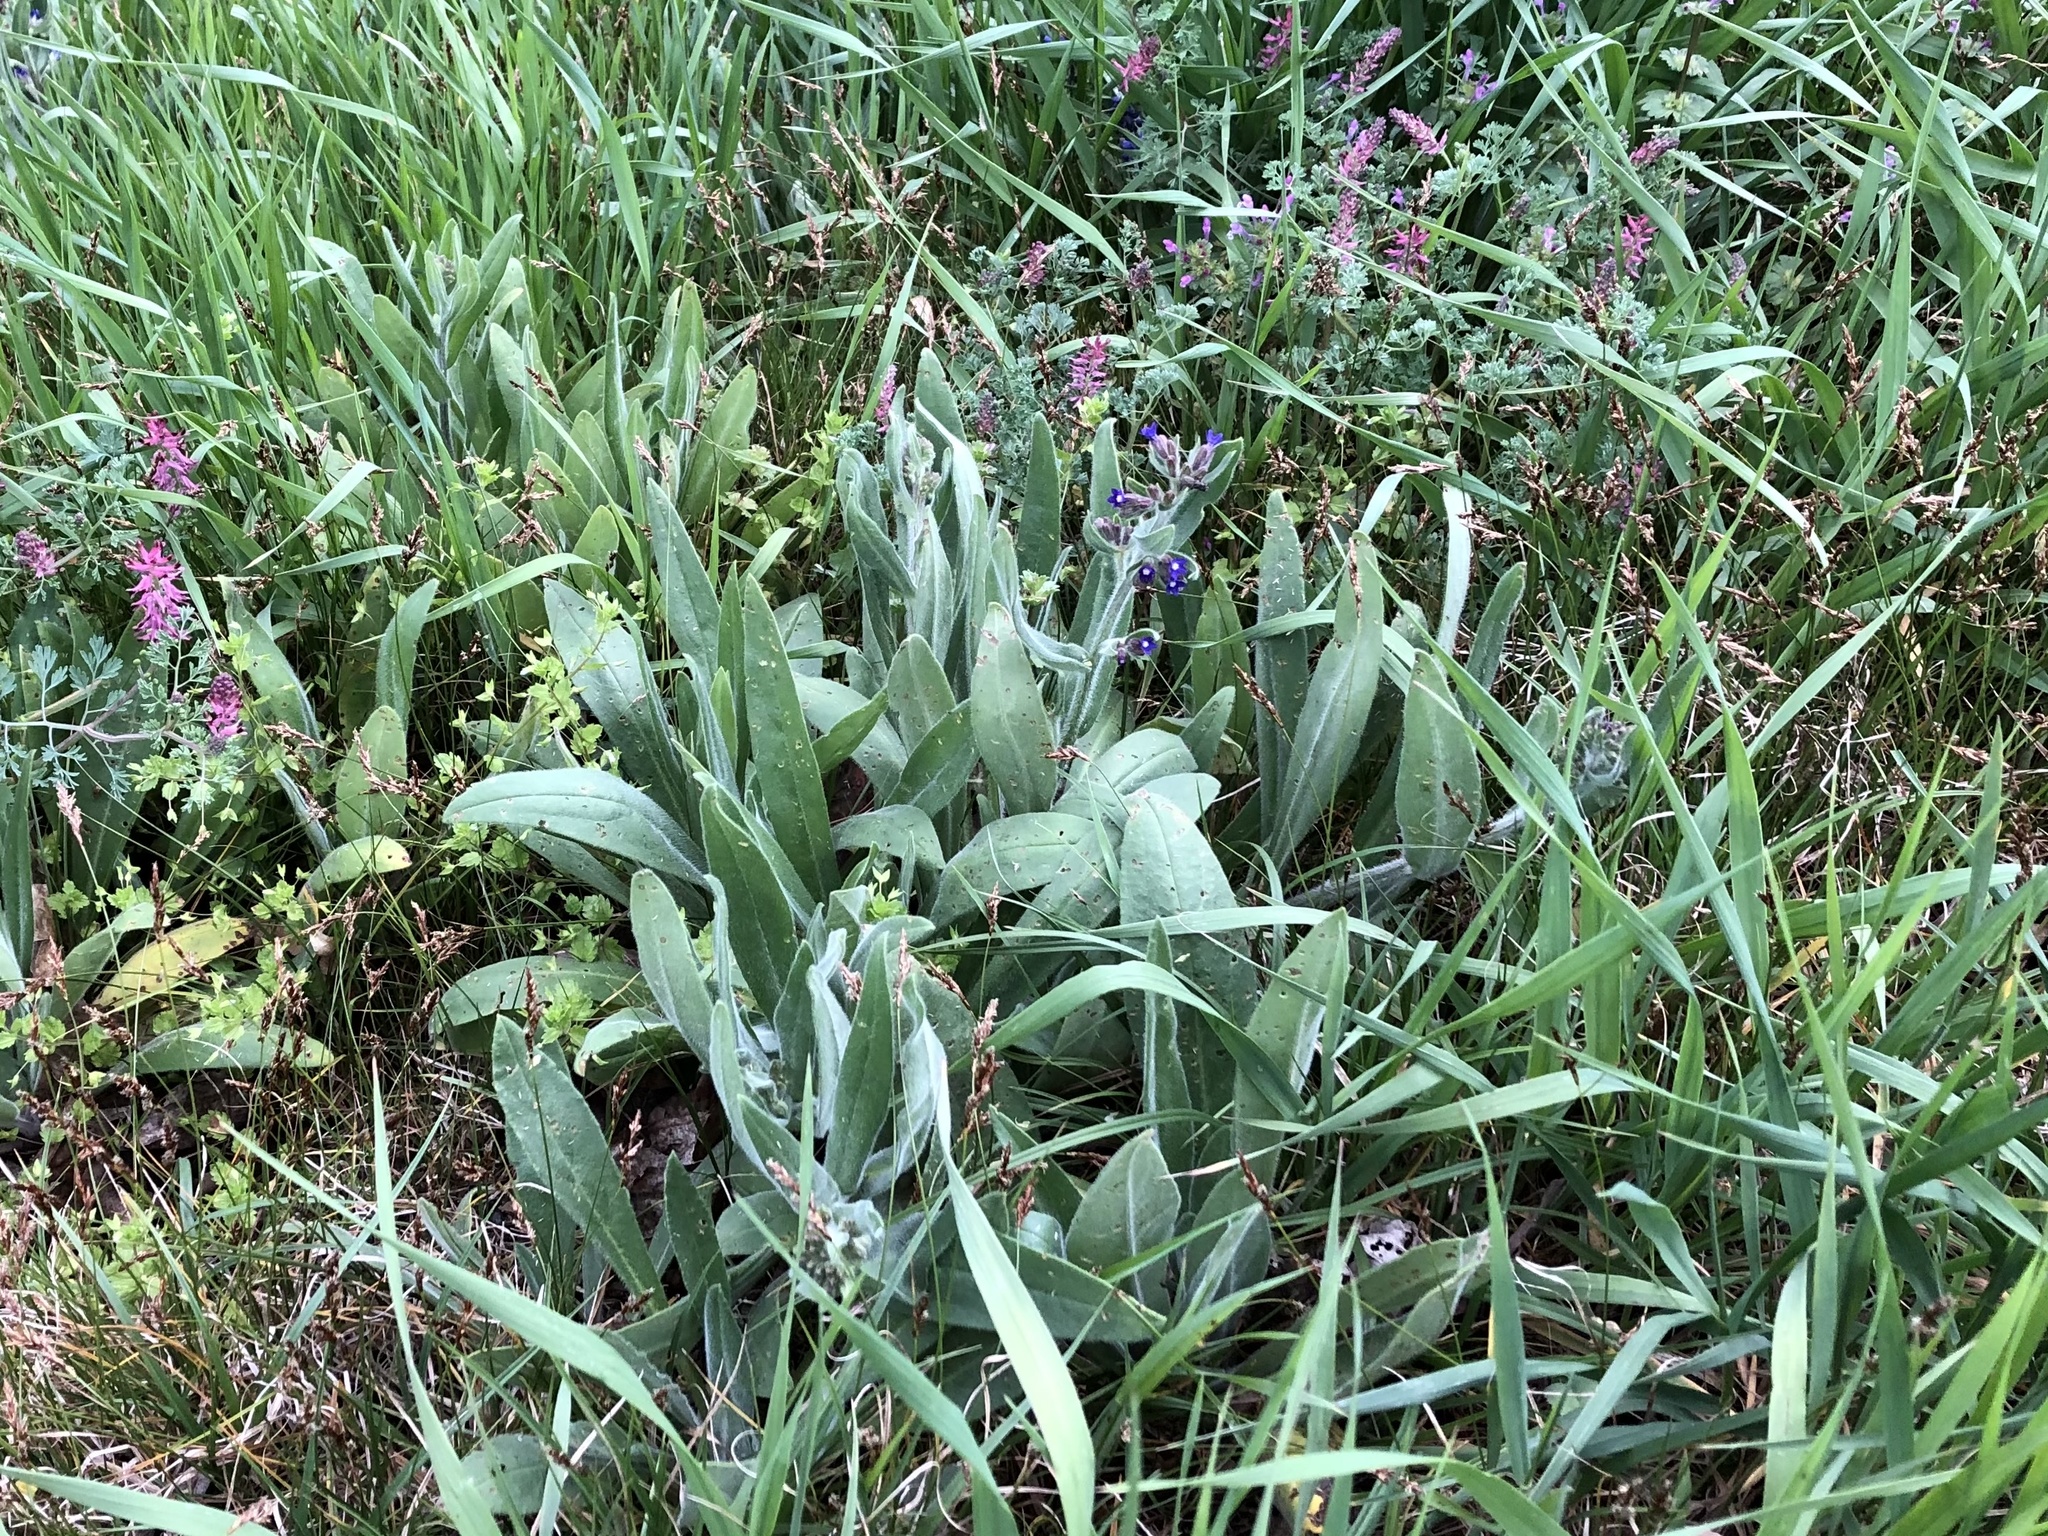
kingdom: Plantae
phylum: Tracheophyta
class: Magnoliopsida
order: Boraginales
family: Boraginaceae
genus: Anchusa
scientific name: Anchusa officinalis
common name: Alkanet
